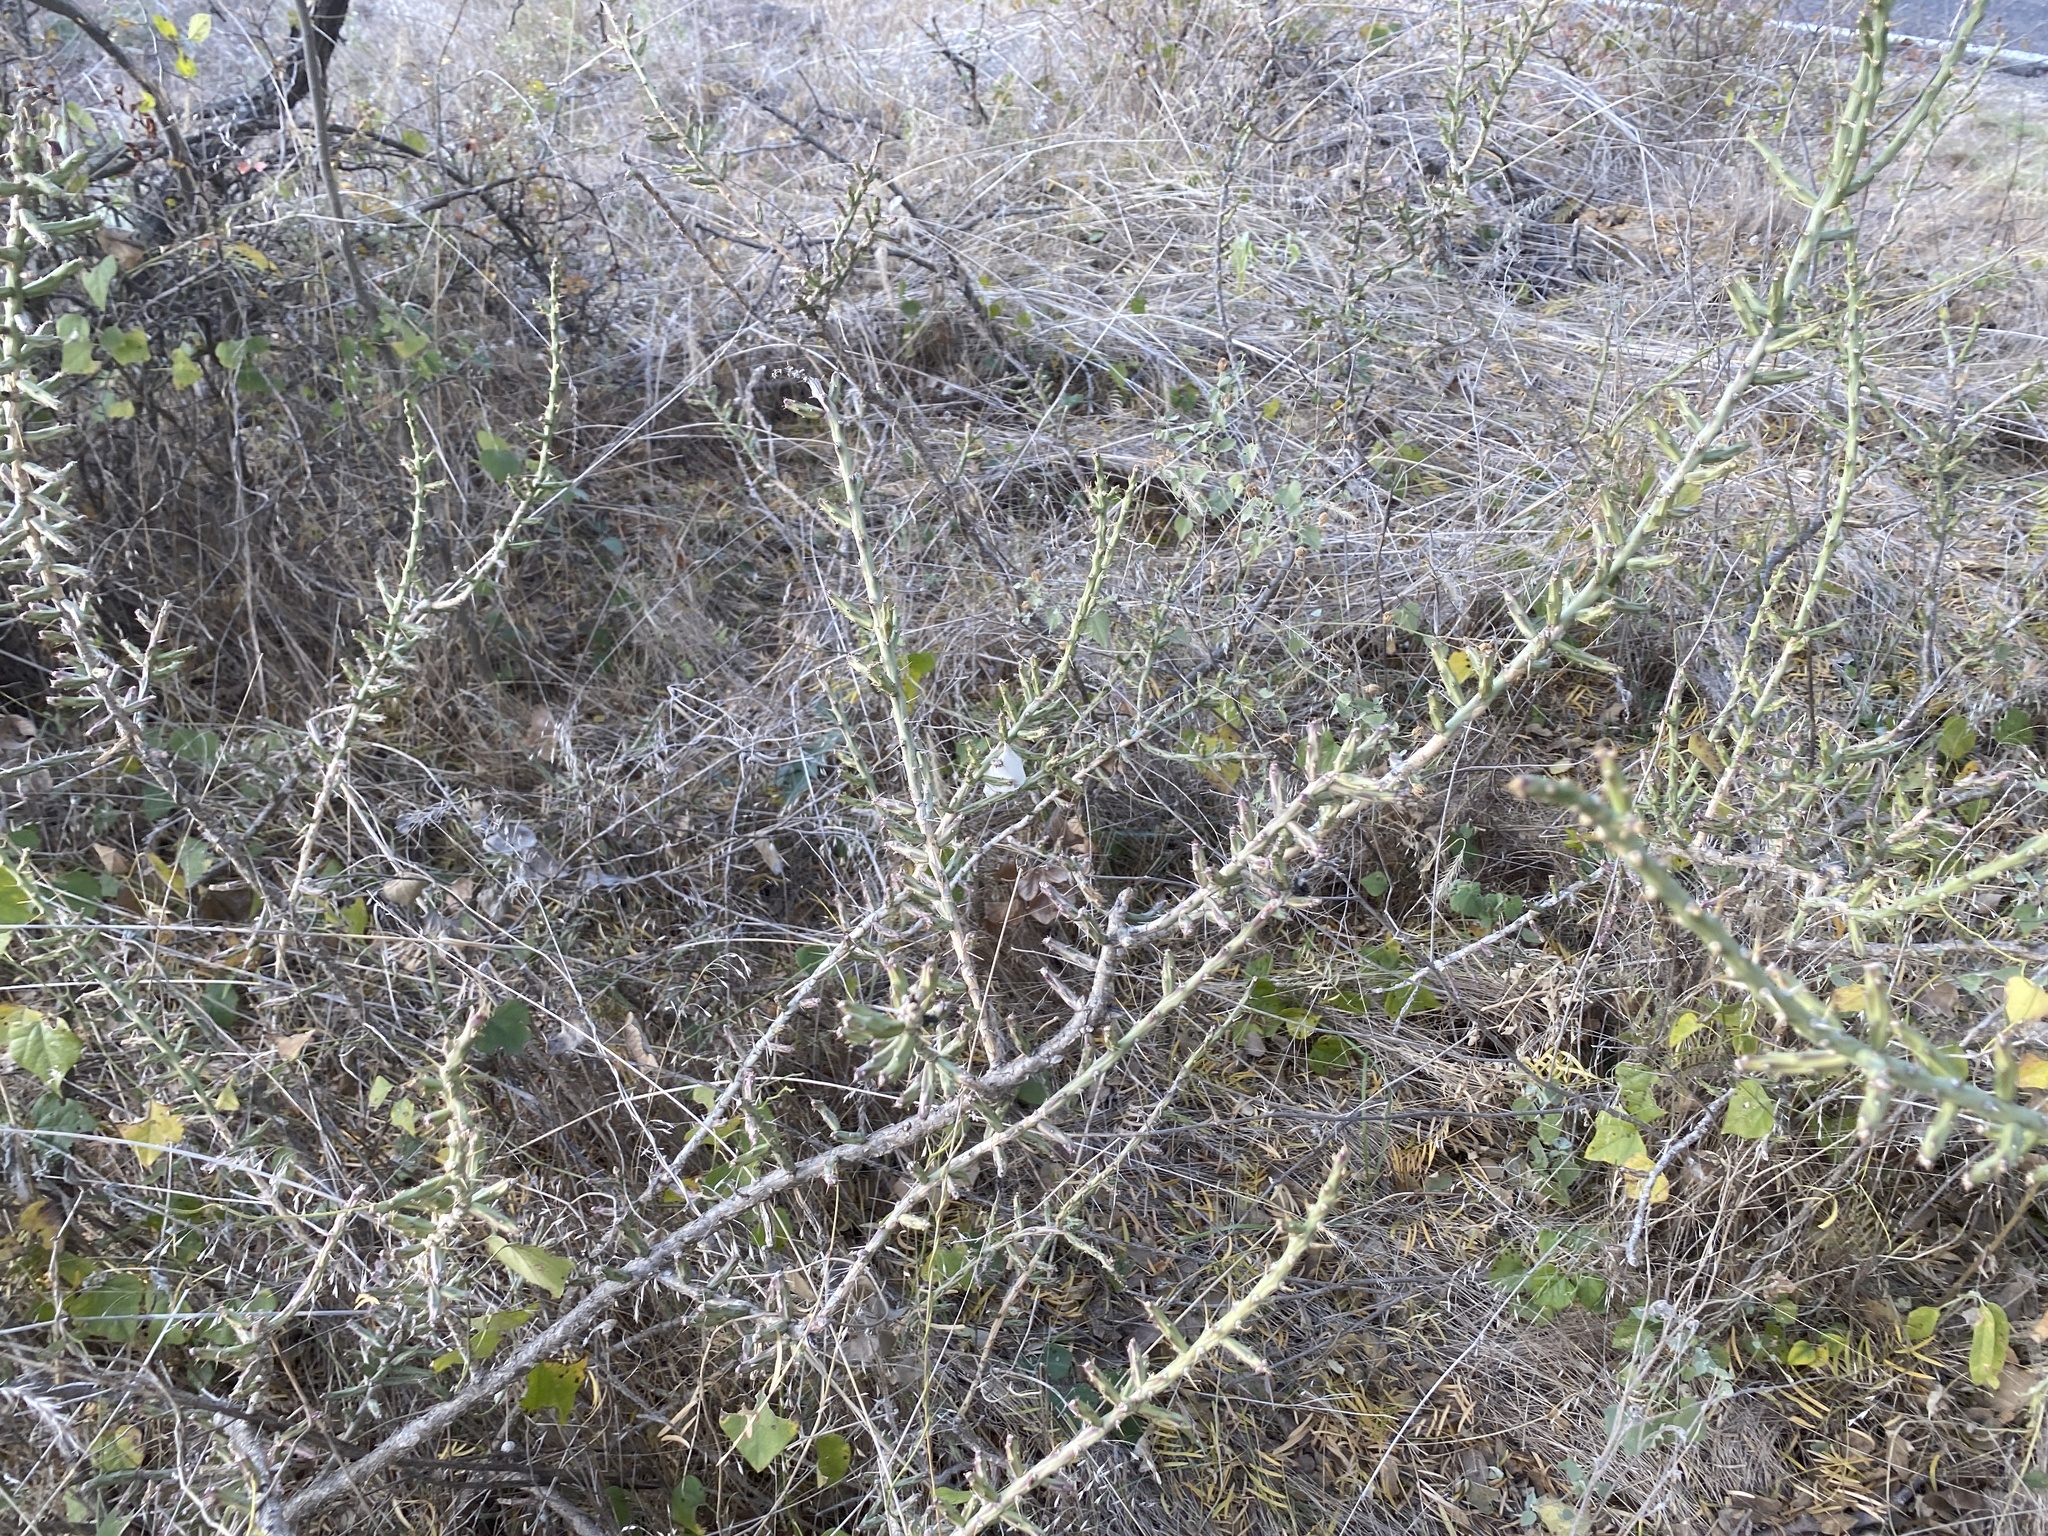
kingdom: Plantae
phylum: Tracheophyta
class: Magnoliopsida
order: Caryophyllales
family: Cactaceae
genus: Cylindropuntia
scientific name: Cylindropuntia leptocaulis
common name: Christmas cactus
